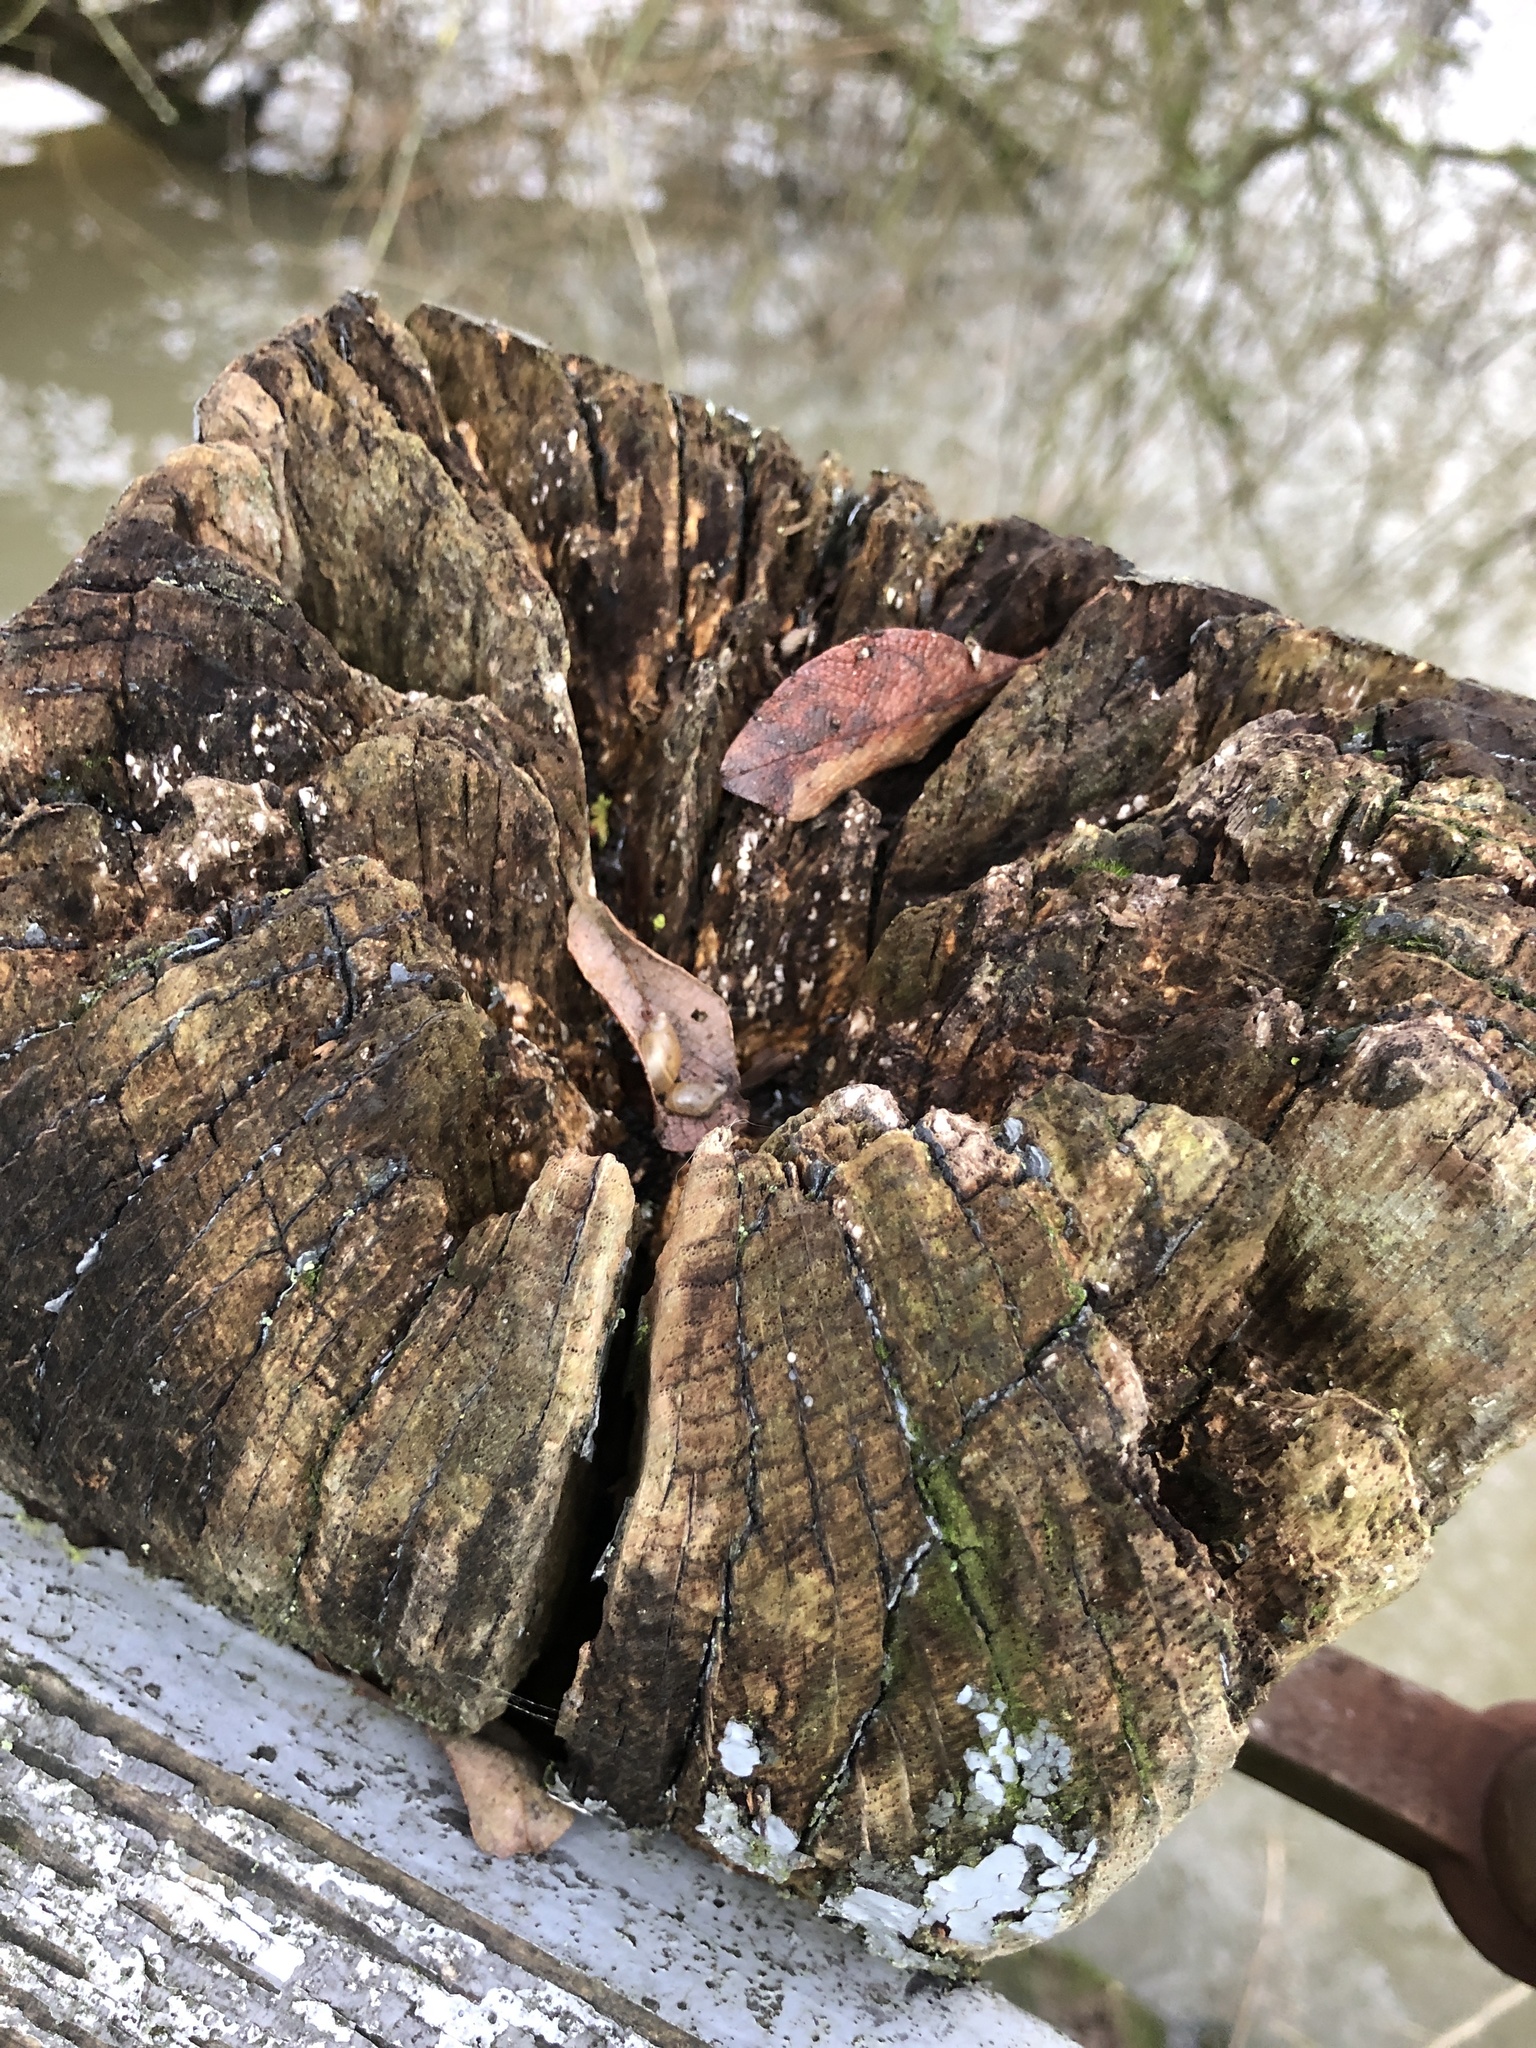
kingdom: Animalia
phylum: Mollusca
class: Gastropoda
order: Stylommatophora
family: Succineidae
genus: Succinea
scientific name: Succinea putris
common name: European ambersnail
